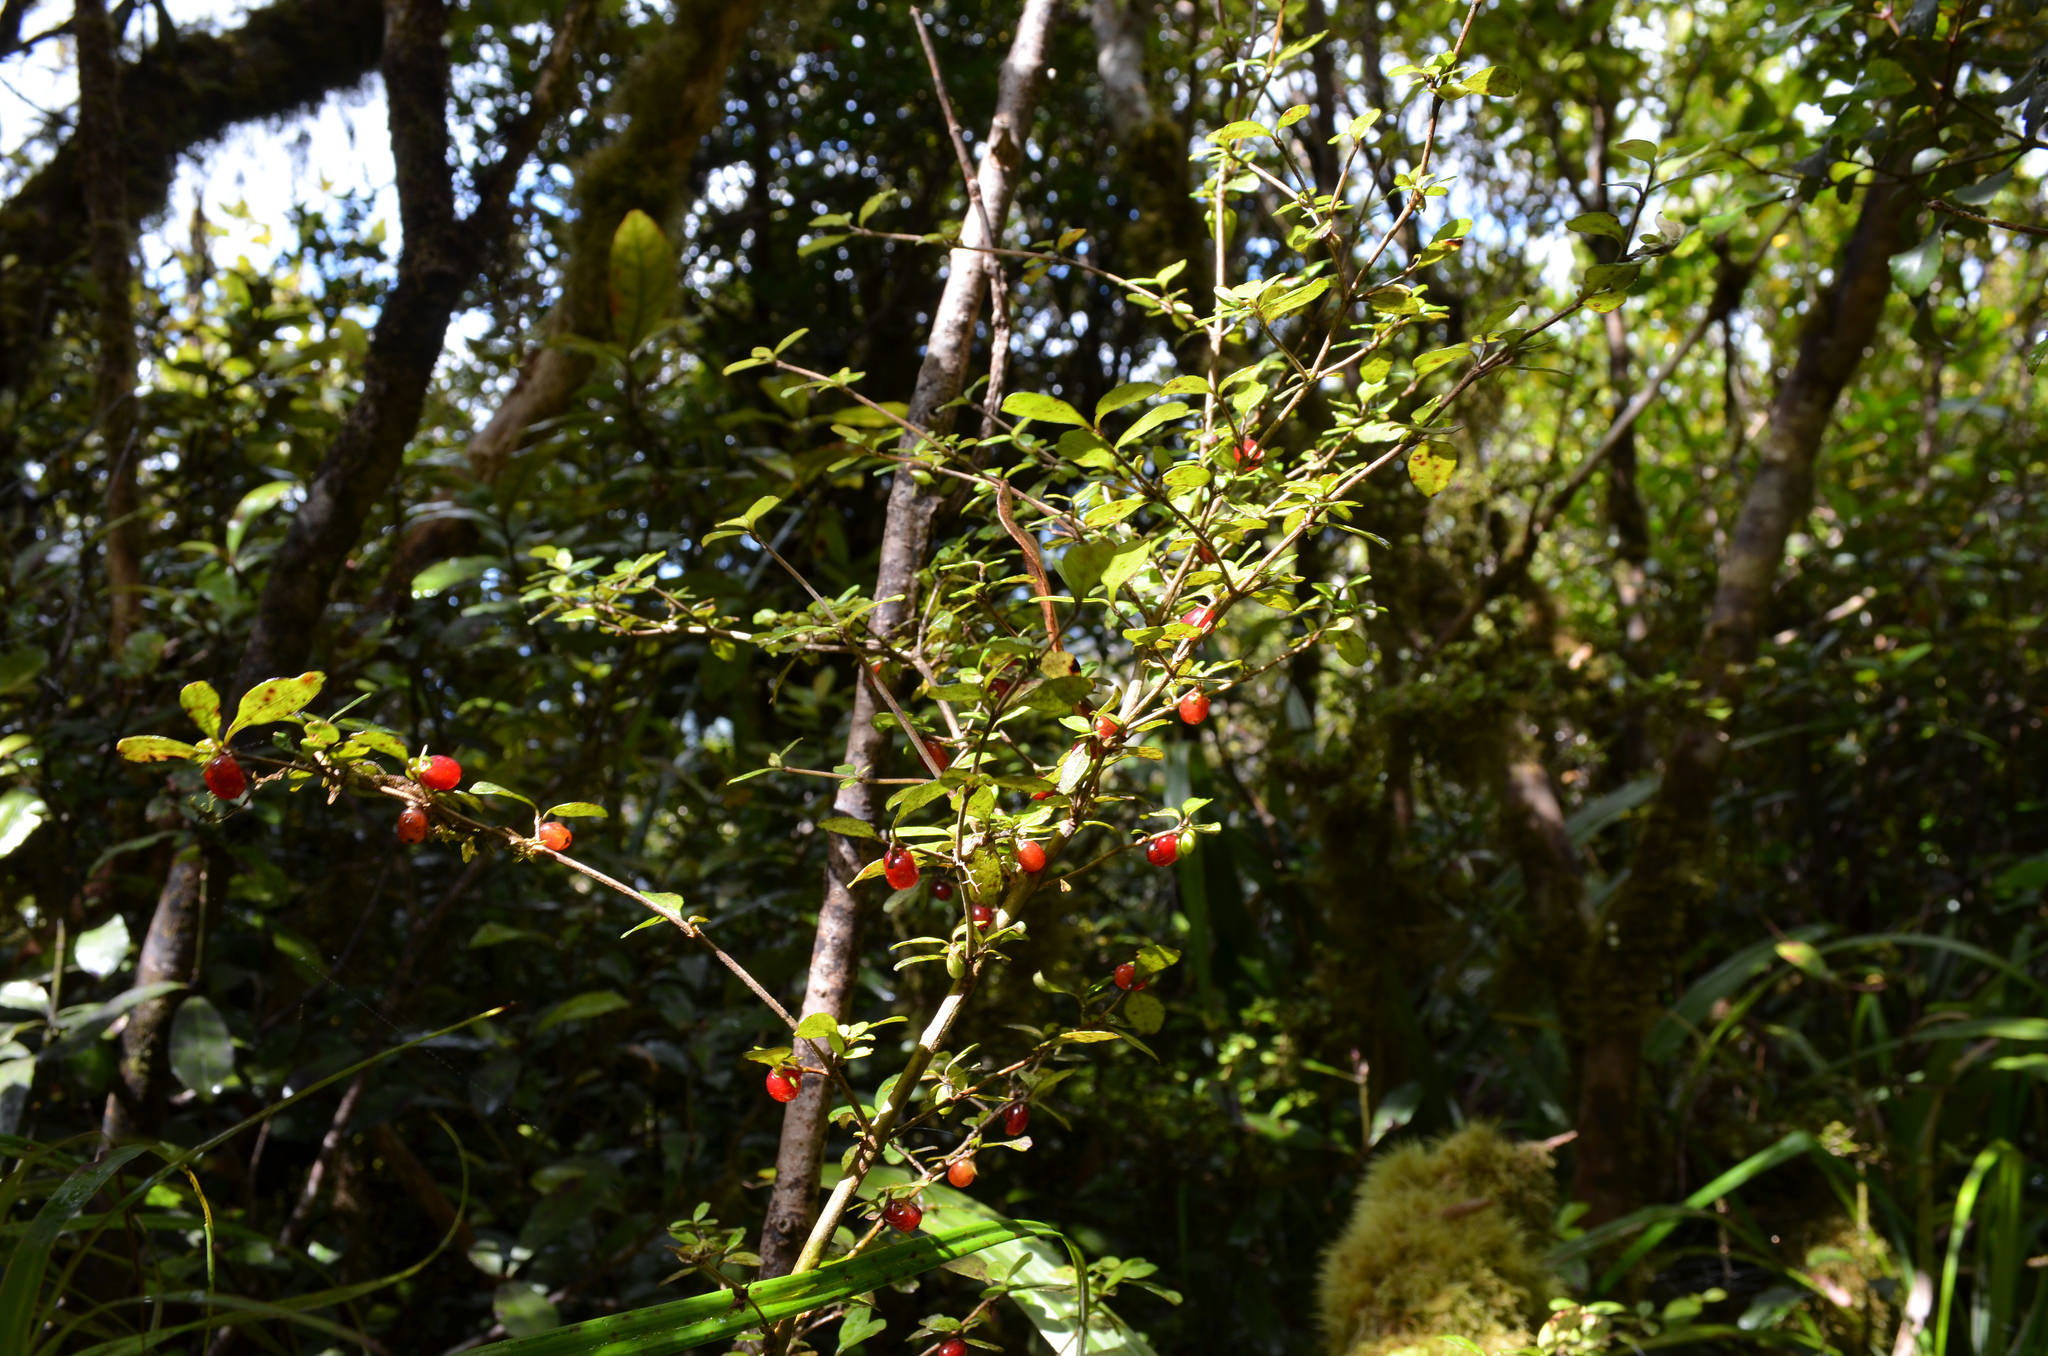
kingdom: Plantae
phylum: Tracheophyta
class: Magnoliopsida
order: Gentianales
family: Rubiaceae
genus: Coprosma
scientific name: Coprosma foetidissima
